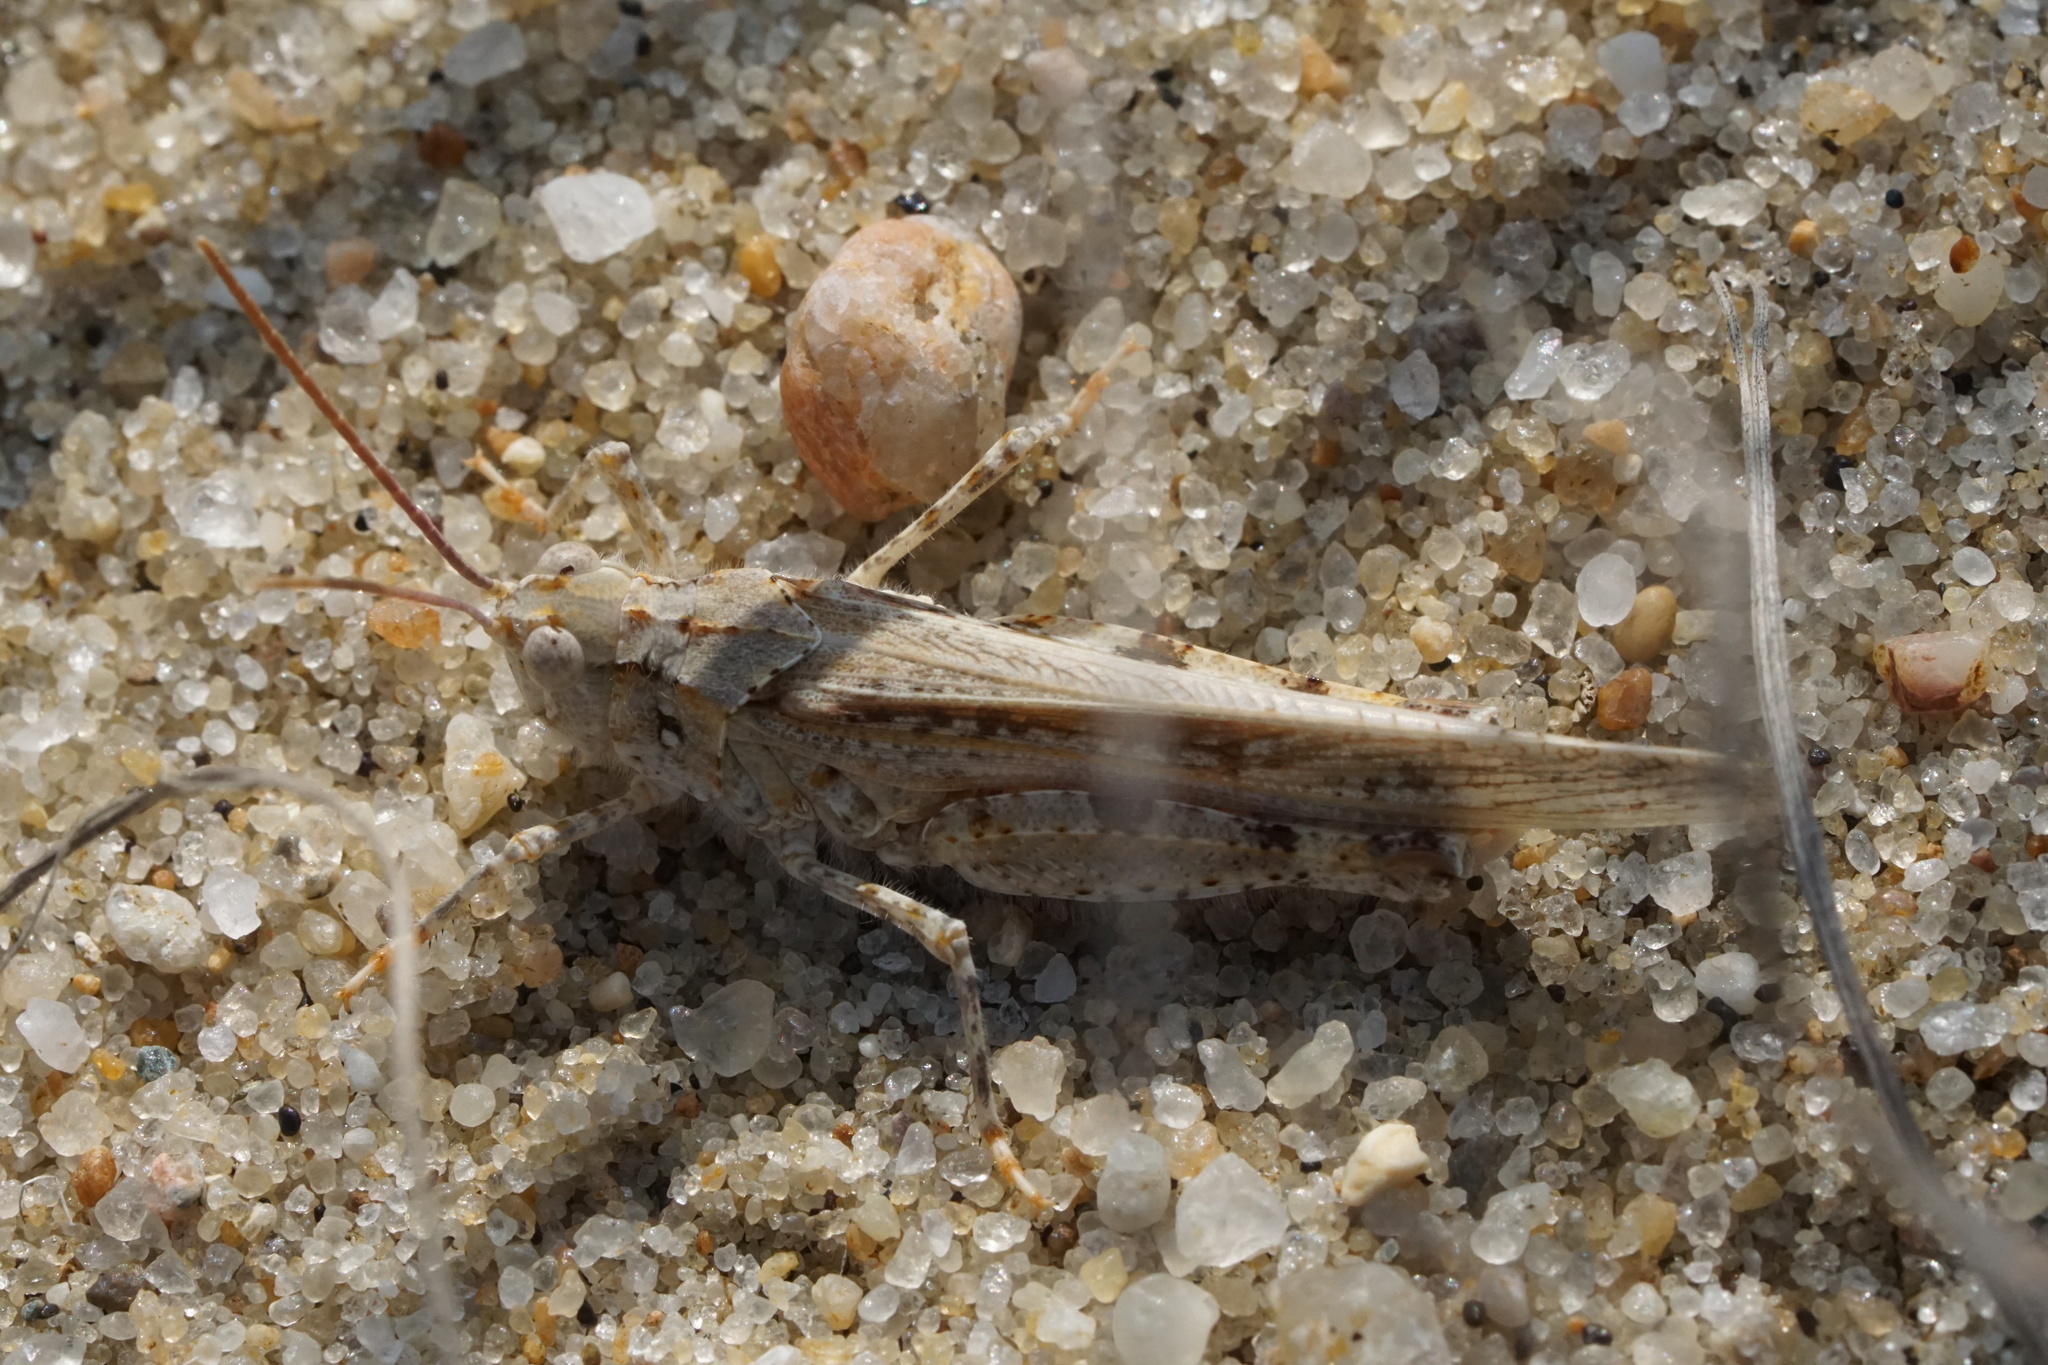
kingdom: Animalia
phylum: Arthropoda
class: Insecta
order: Orthoptera
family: Acrididae
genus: Trimerotropis
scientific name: Trimerotropis maritima
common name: Seaside locust
